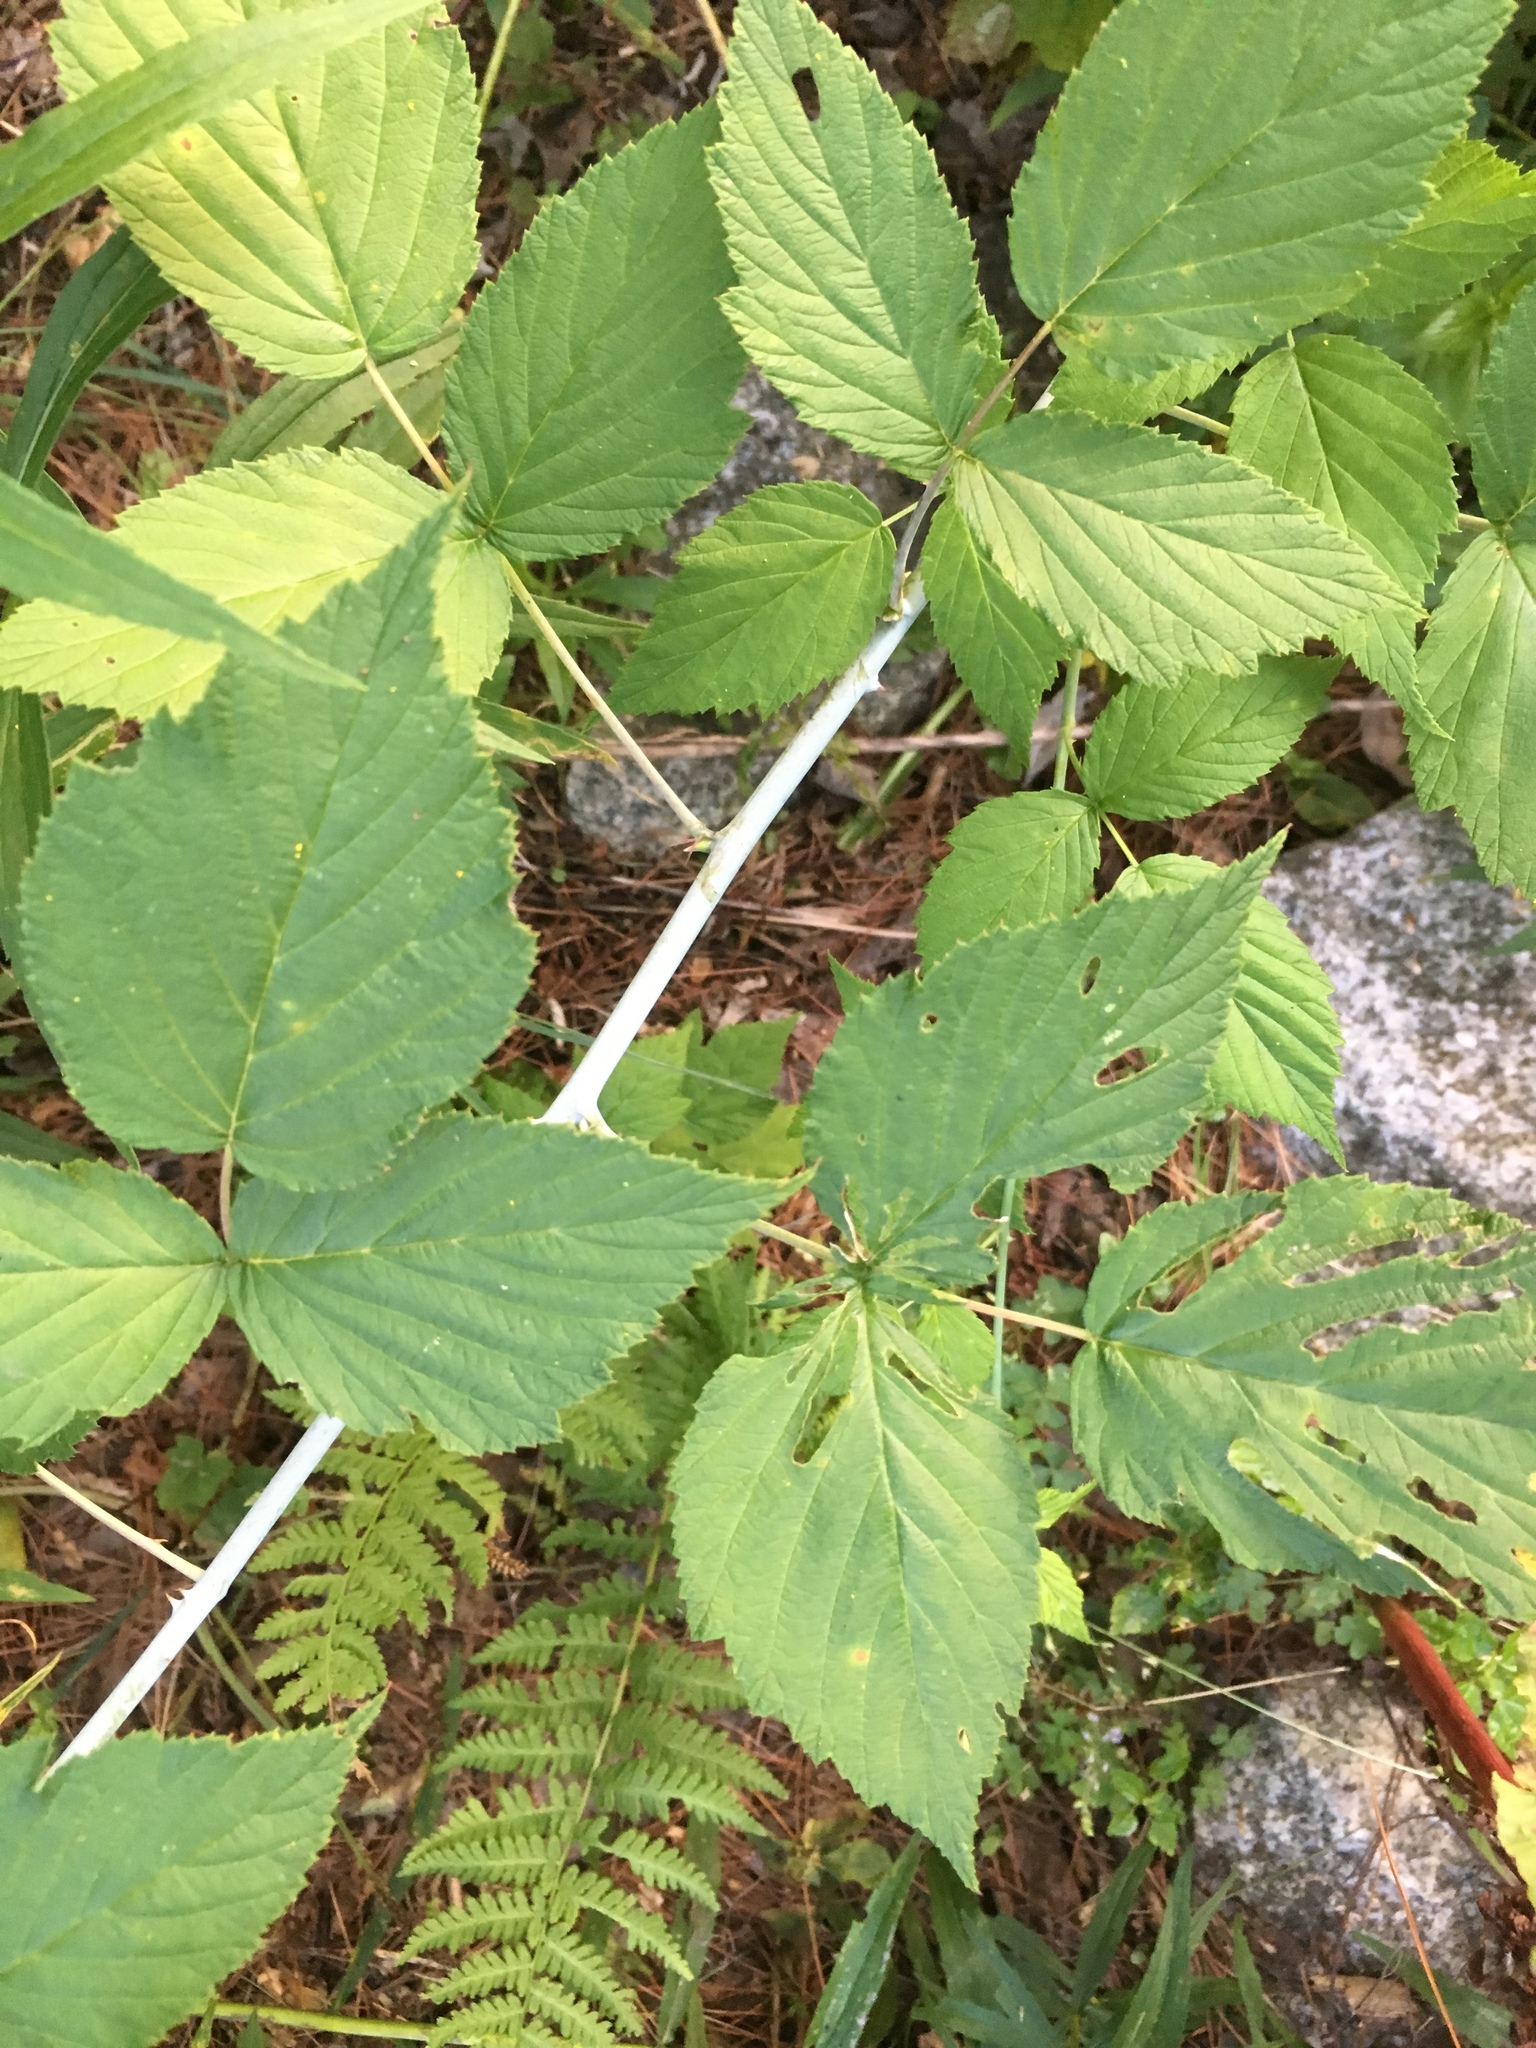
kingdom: Plantae
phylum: Tracheophyta
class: Magnoliopsida
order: Rosales
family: Rosaceae
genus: Rubus
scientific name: Rubus occidentalis
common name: Black raspberry
